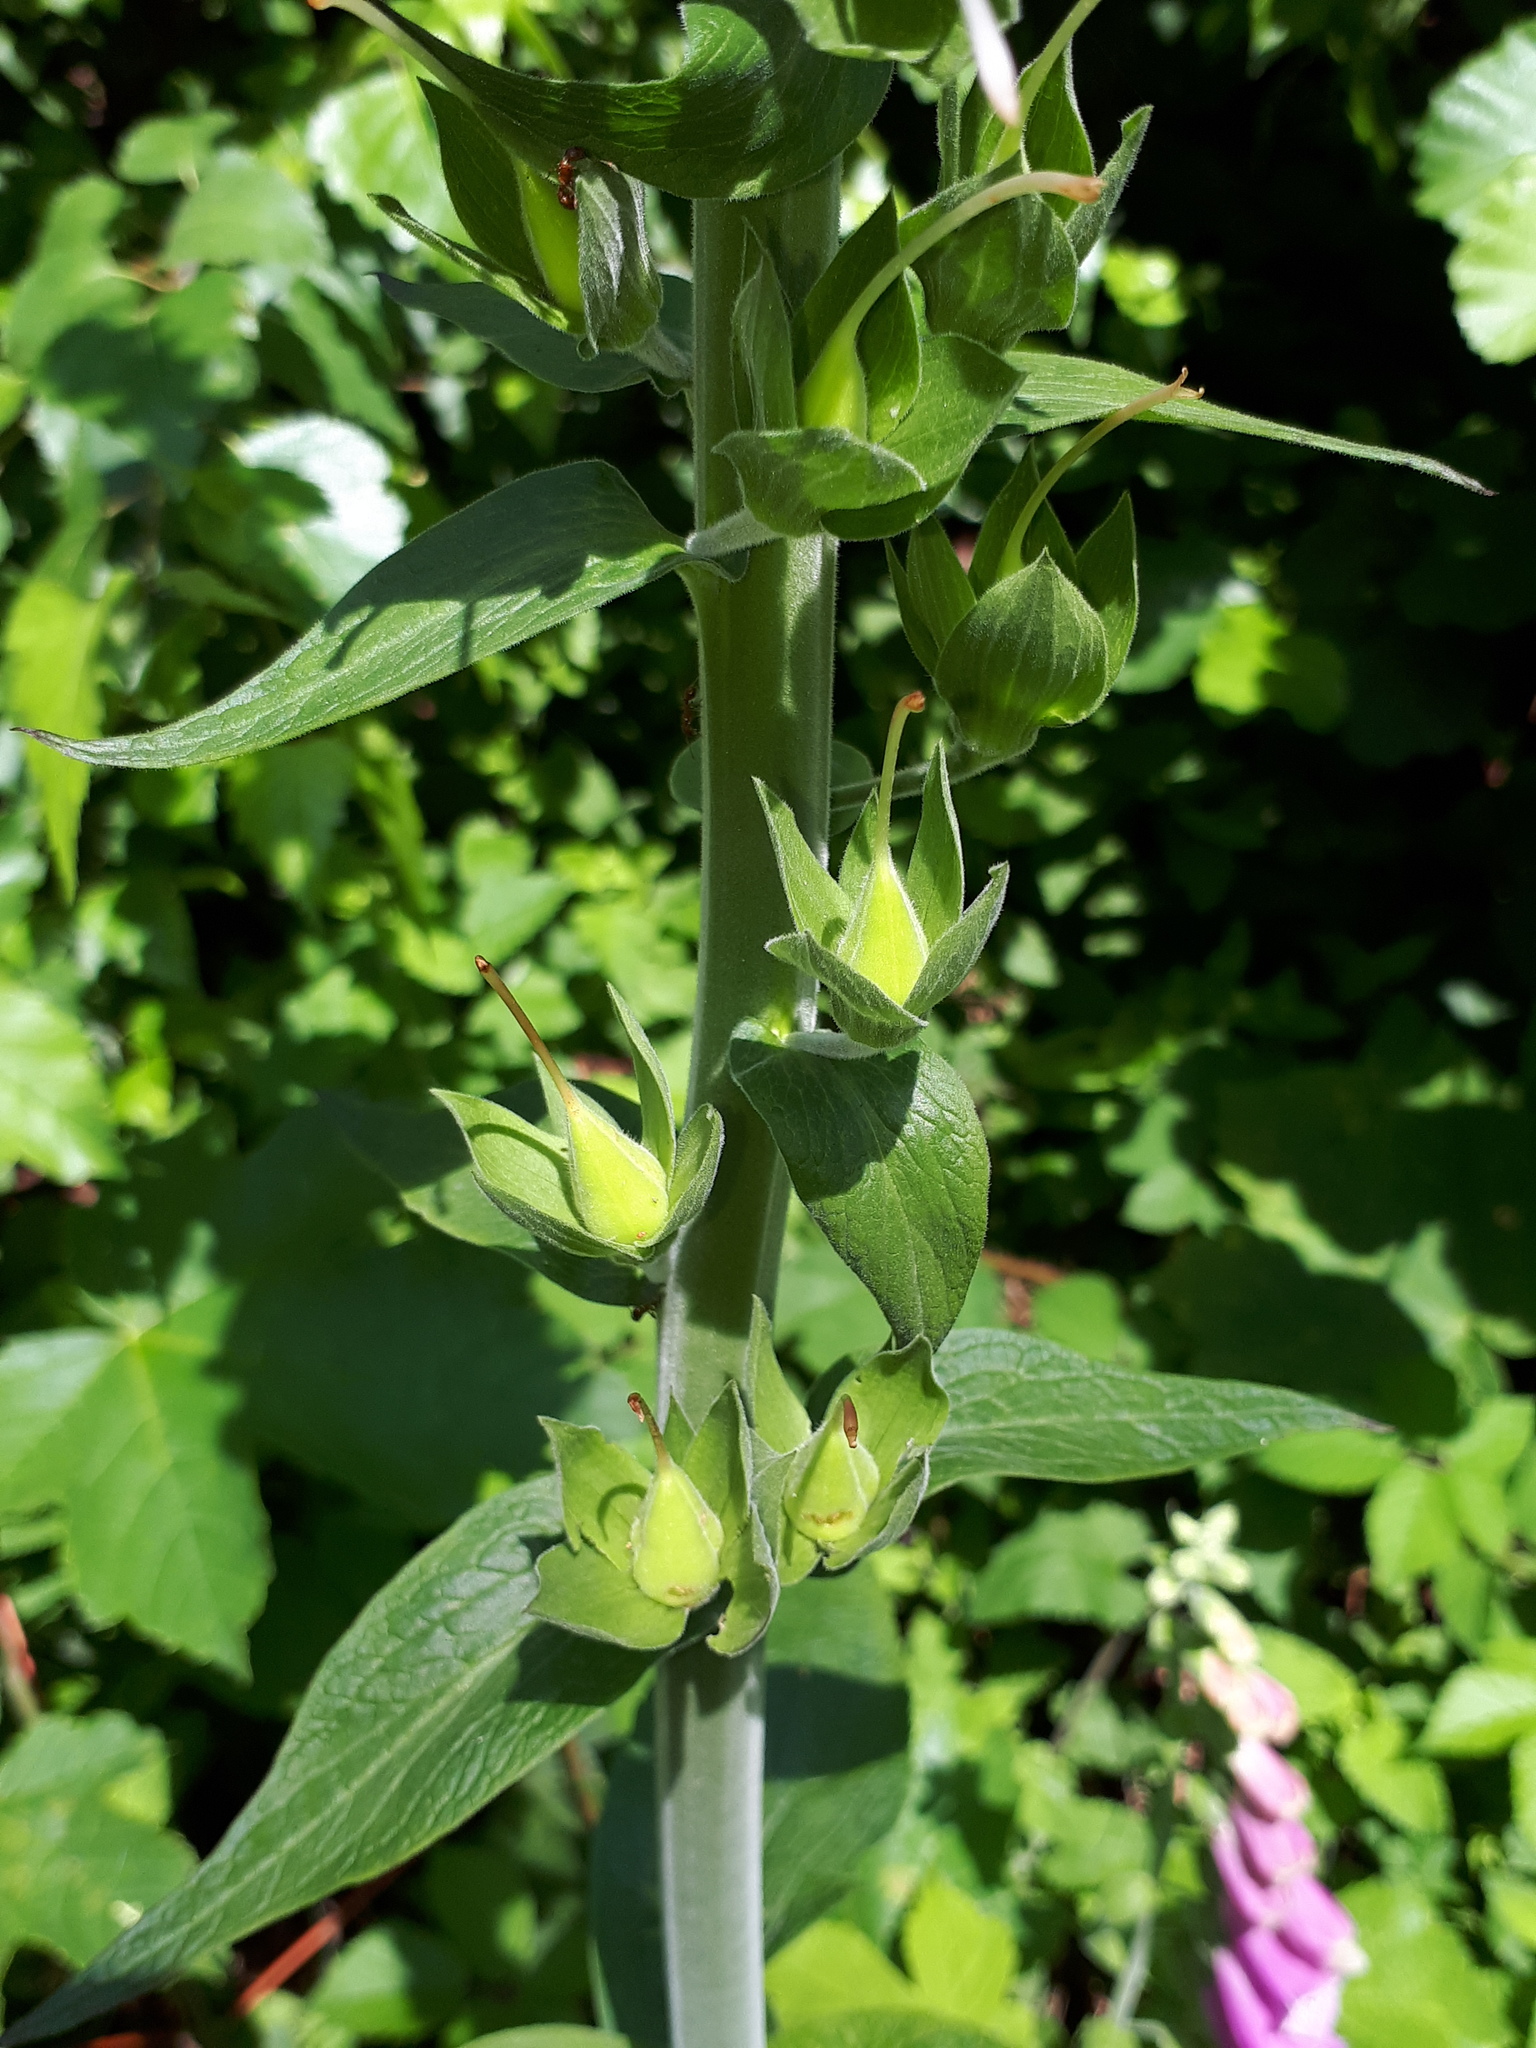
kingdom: Plantae
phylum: Tracheophyta
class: Magnoliopsida
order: Lamiales
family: Plantaginaceae
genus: Digitalis
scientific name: Digitalis purpurea
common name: Foxglove
